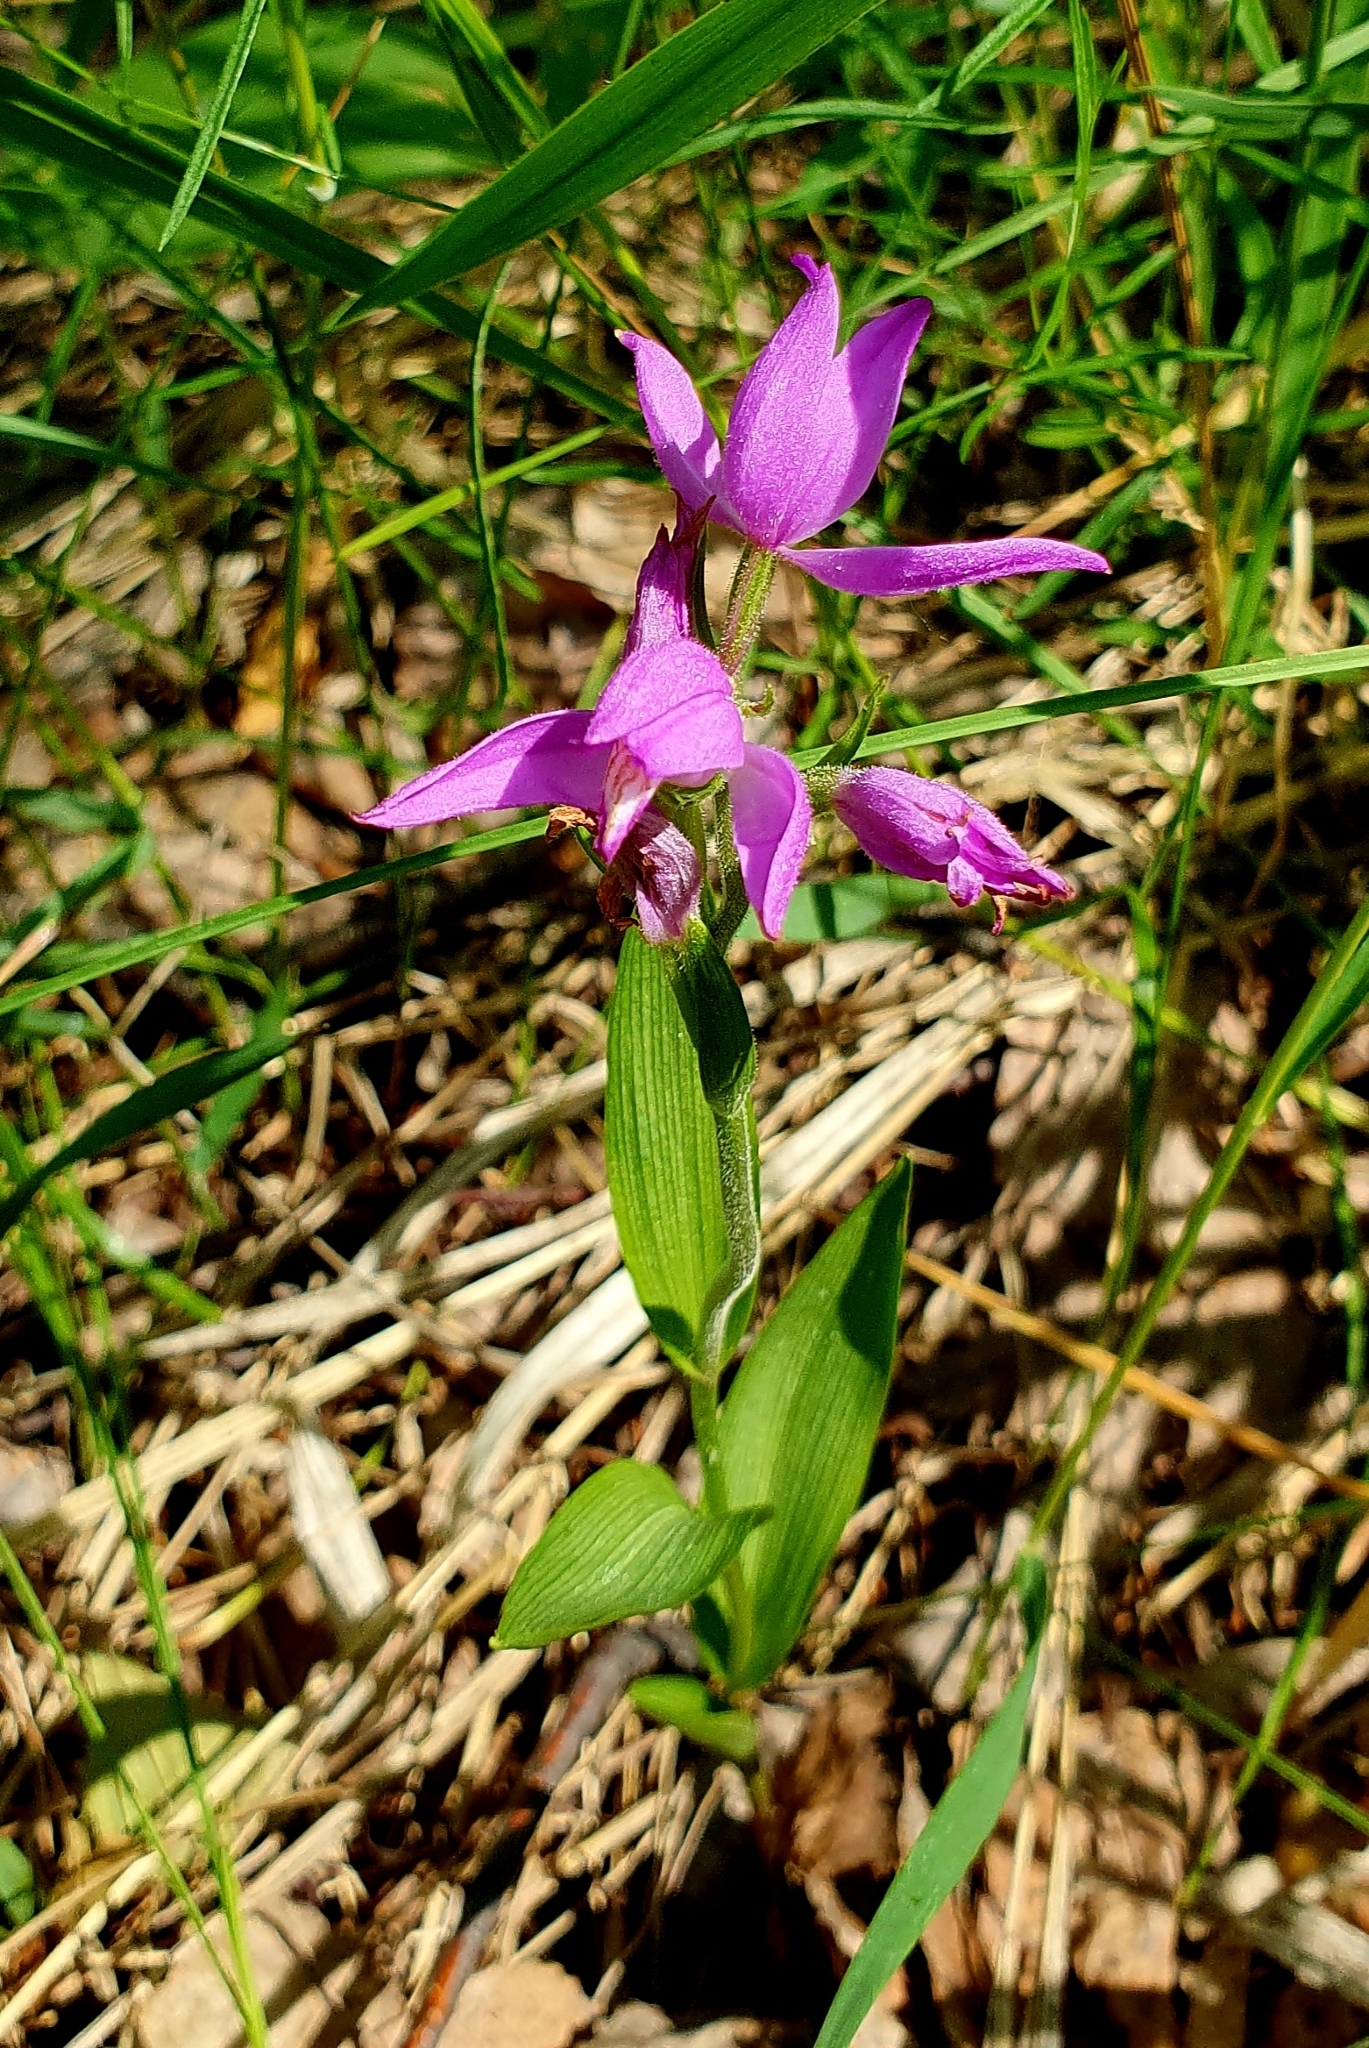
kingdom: Plantae
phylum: Tracheophyta
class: Liliopsida
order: Asparagales
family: Orchidaceae
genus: Cephalanthera
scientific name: Cephalanthera rubra
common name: Red helleborine
